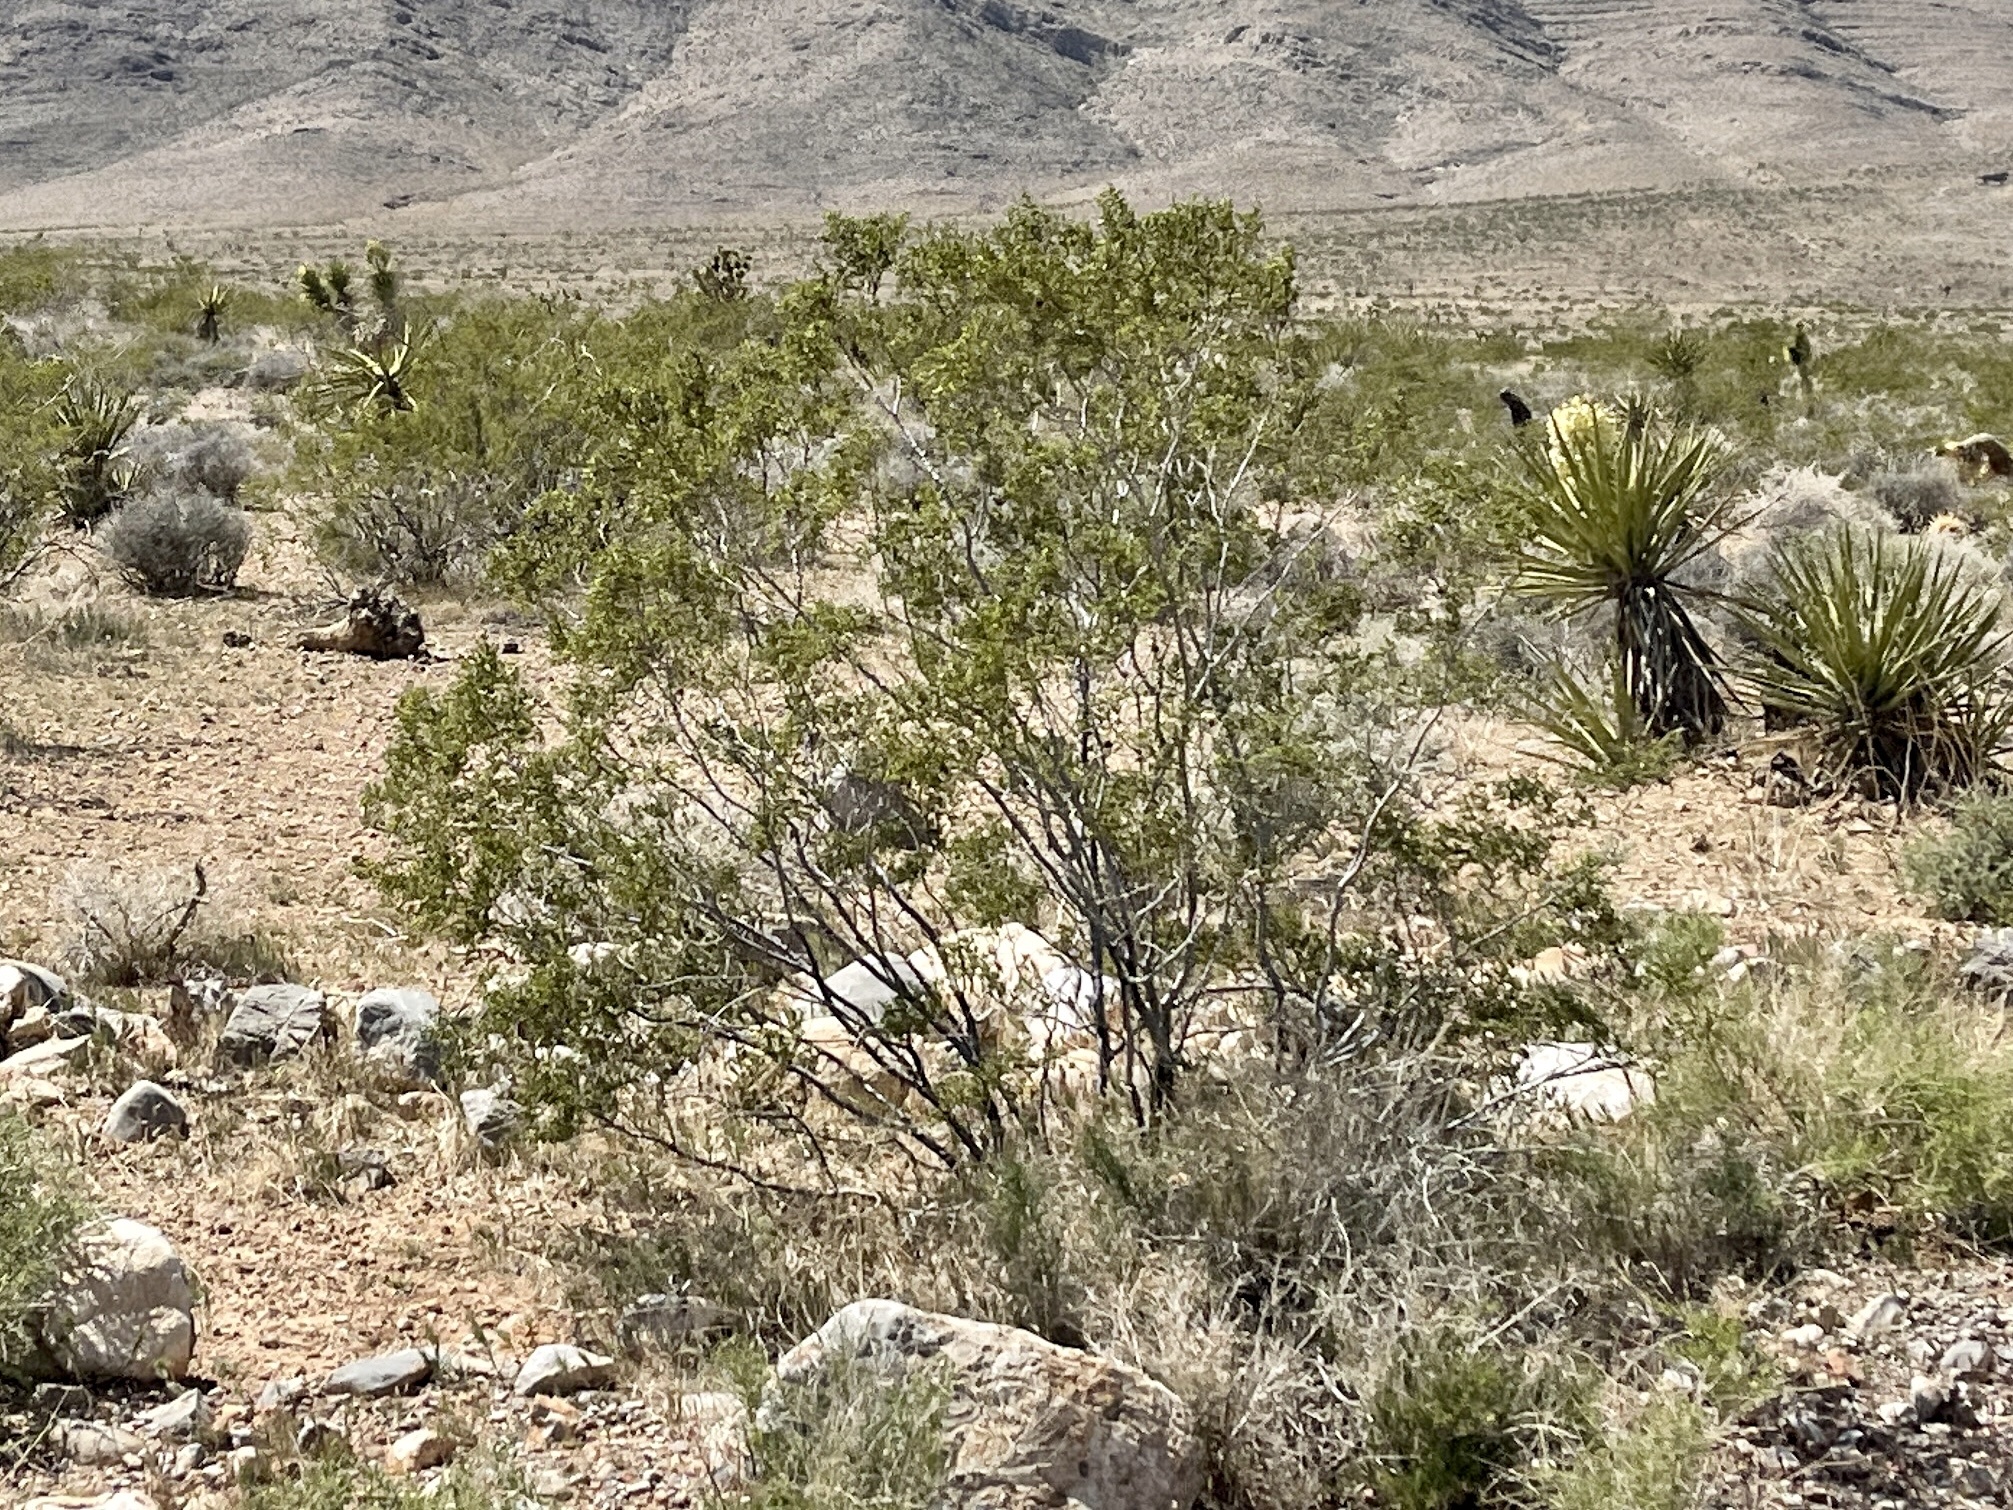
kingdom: Plantae
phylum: Tracheophyta
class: Magnoliopsida
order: Zygophyllales
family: Zygophyllaceae
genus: Larrea
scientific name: Larrea tridentata
